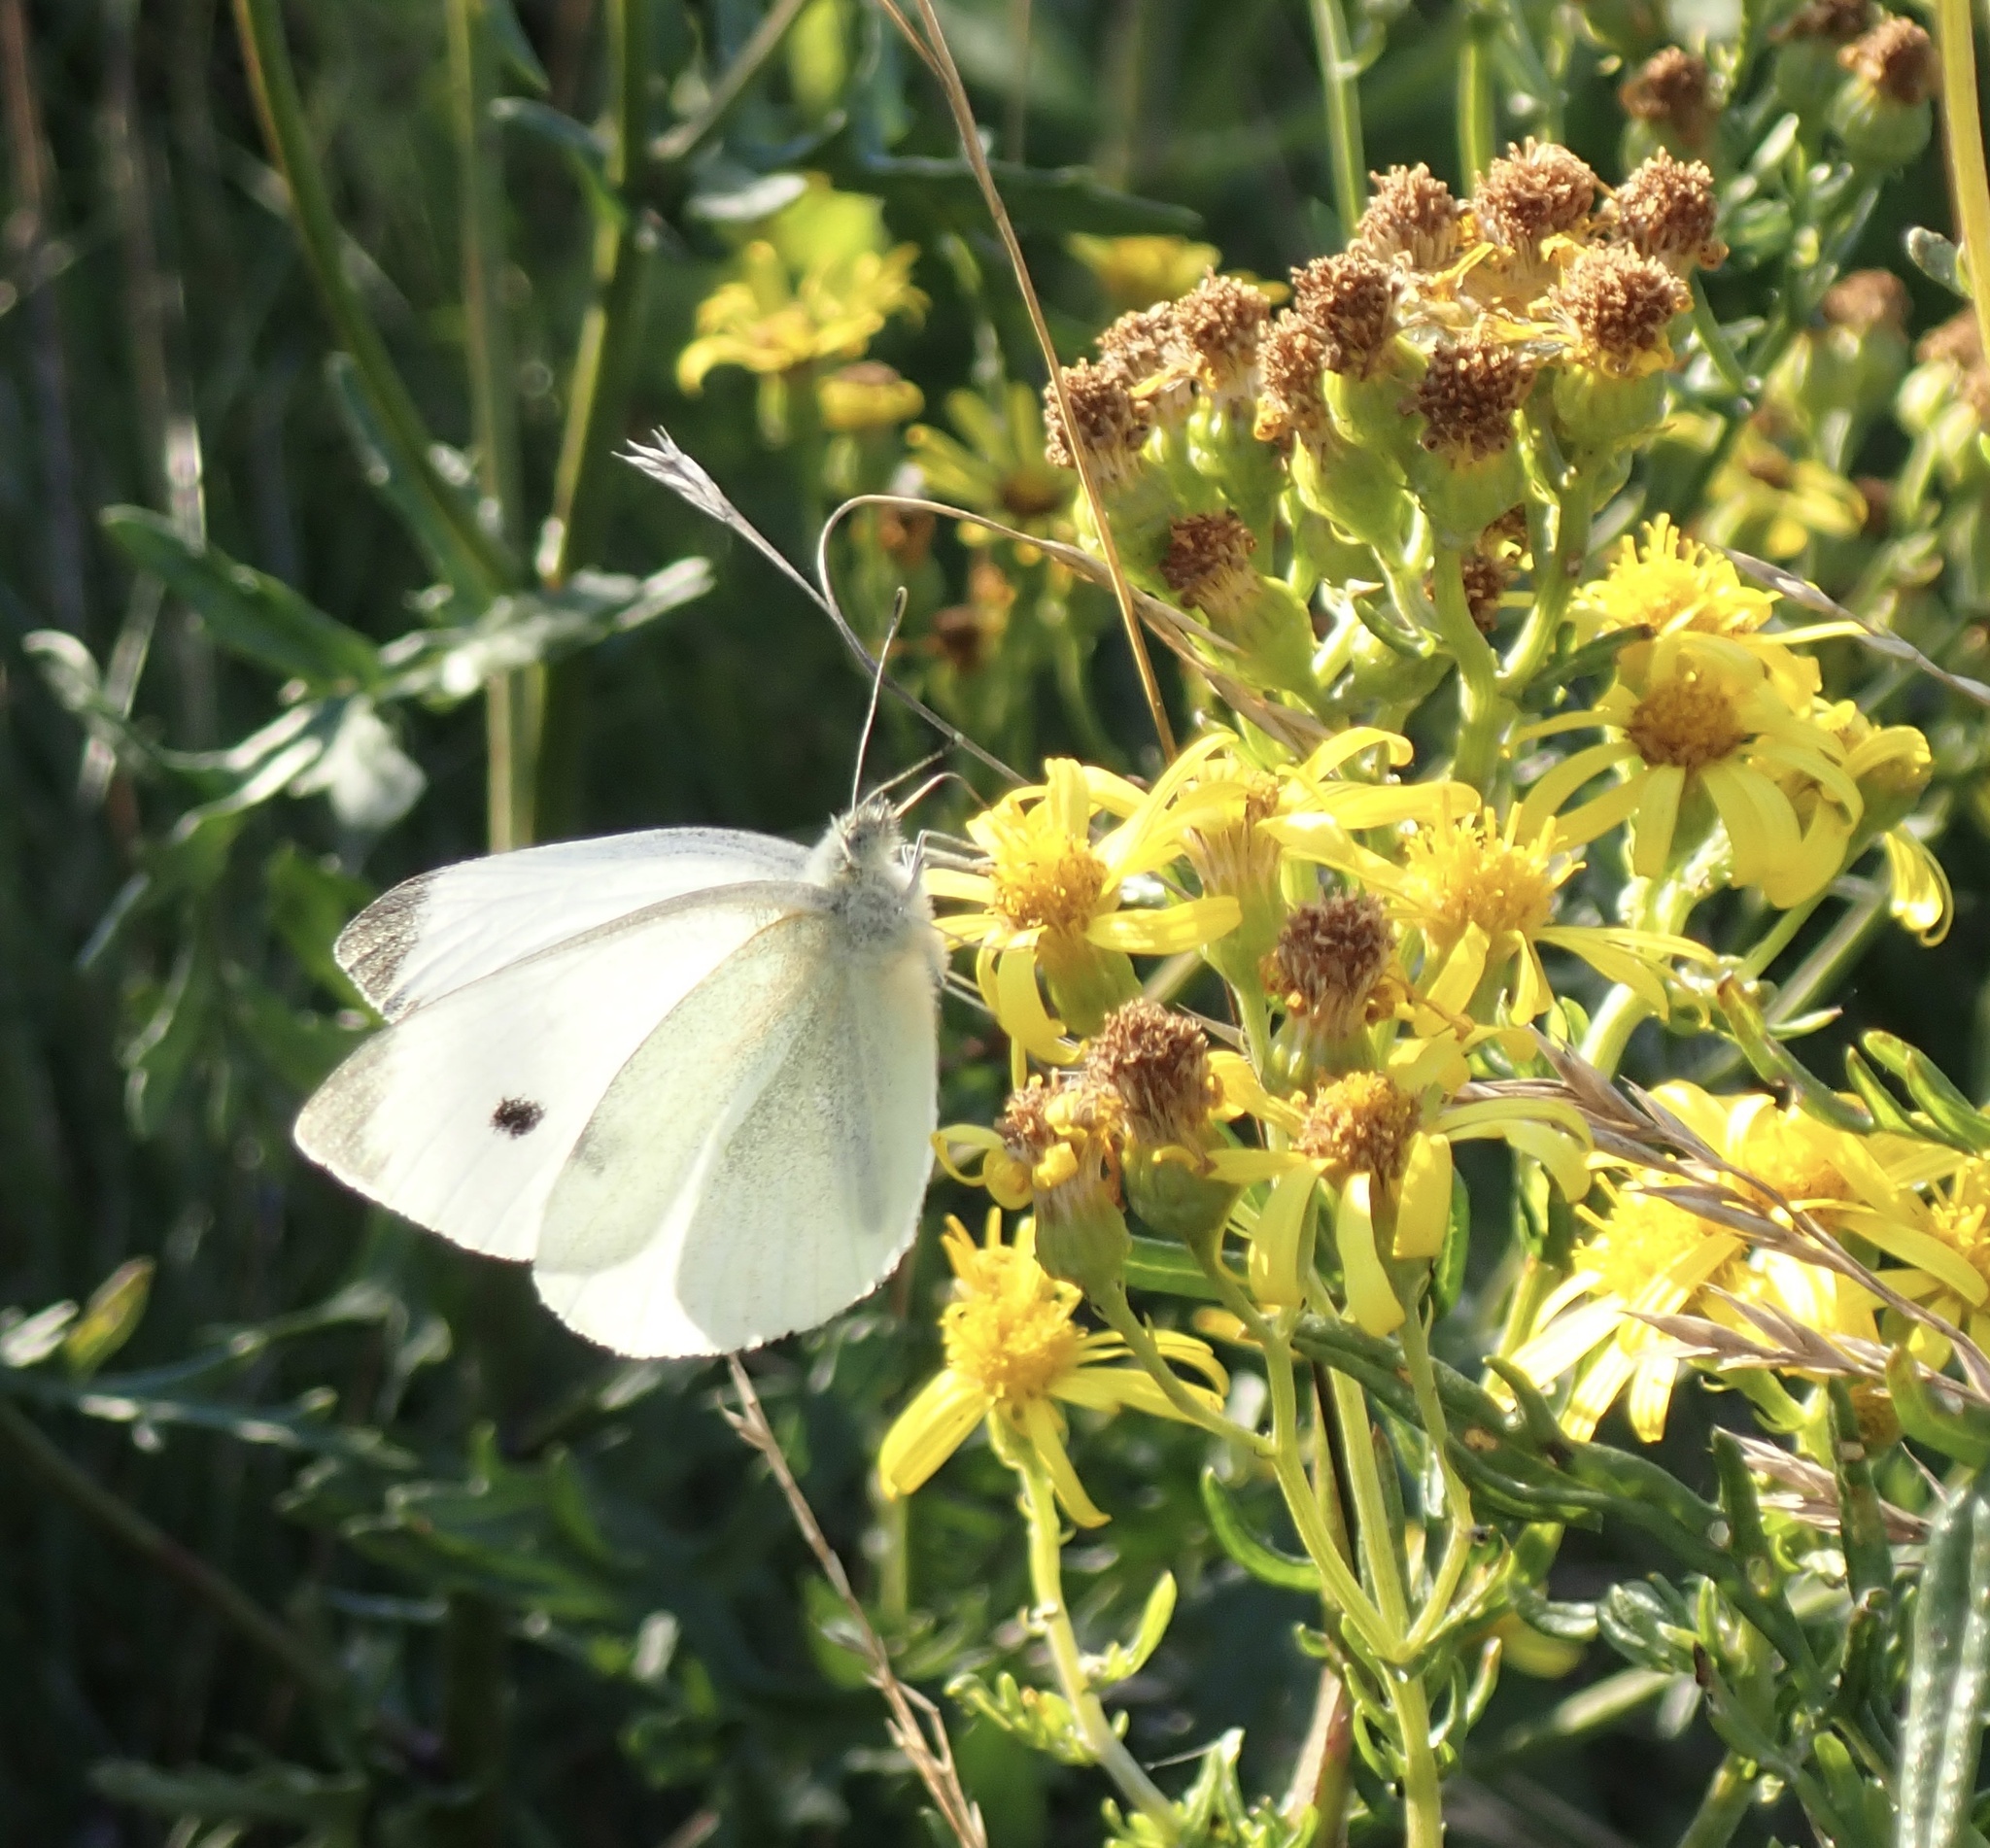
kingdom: Animalia
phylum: Arthropoda
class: Insecta
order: Lepidoptera
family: Pieridae
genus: Pieris
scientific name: Pieris rapae
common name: Small white
